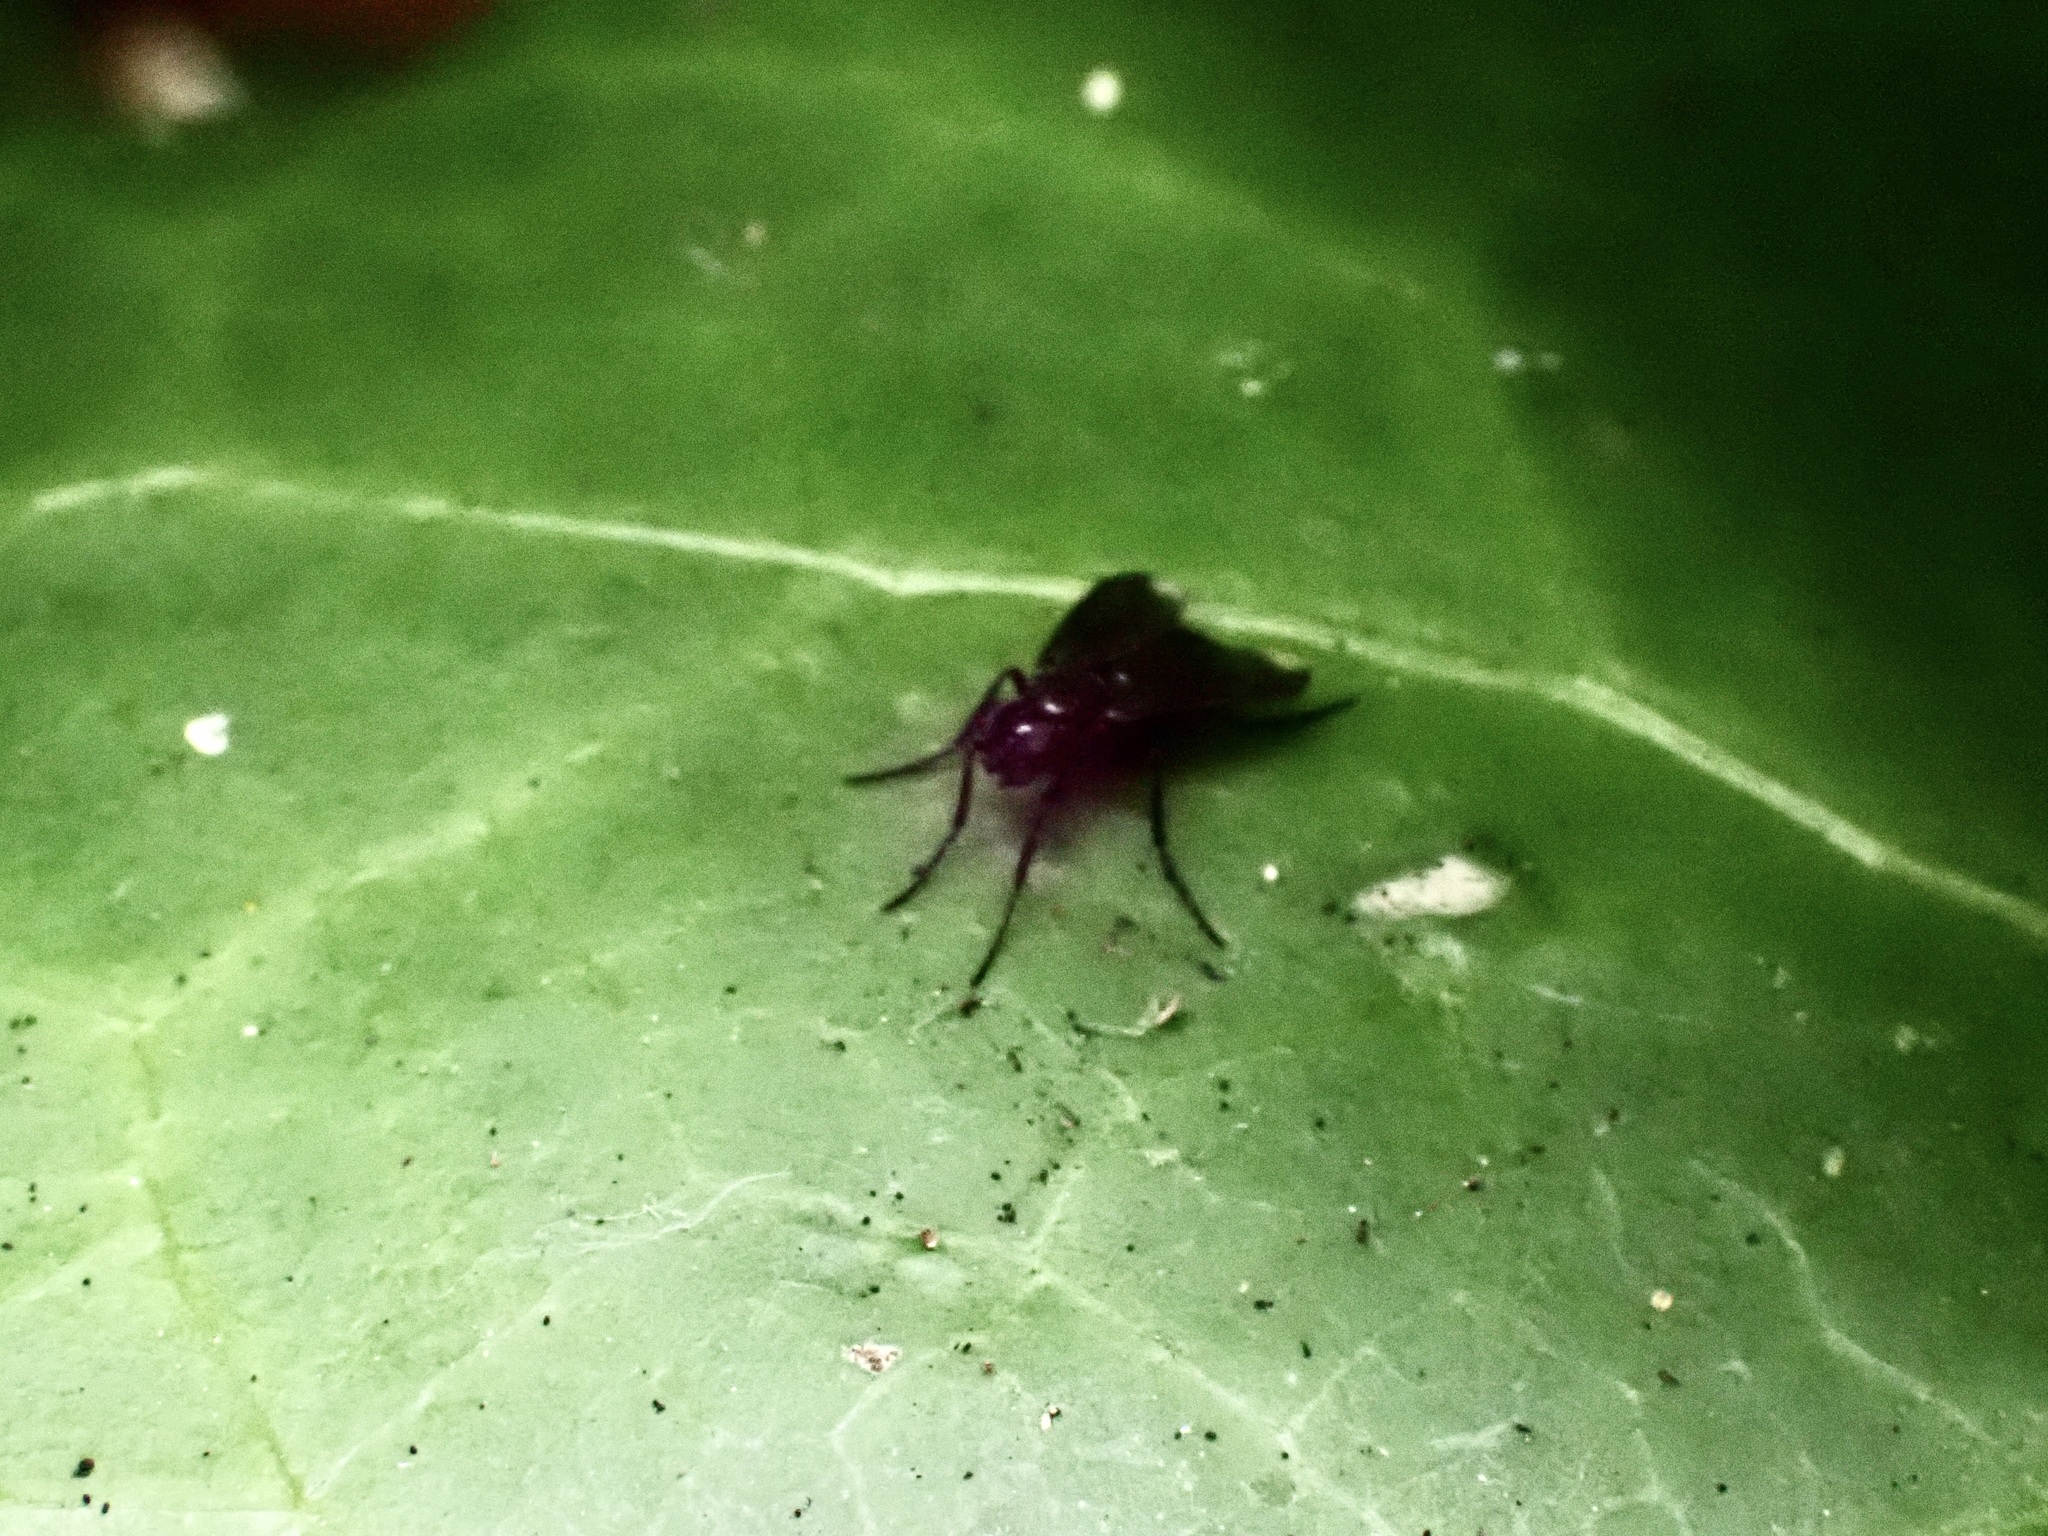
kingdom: Animalia
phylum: Arthropoda
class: Insecta
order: Diptera
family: Calliphoridae
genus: Melanophora
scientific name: Melanophora roralis
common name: Smoky-winged woodlouse-fly
